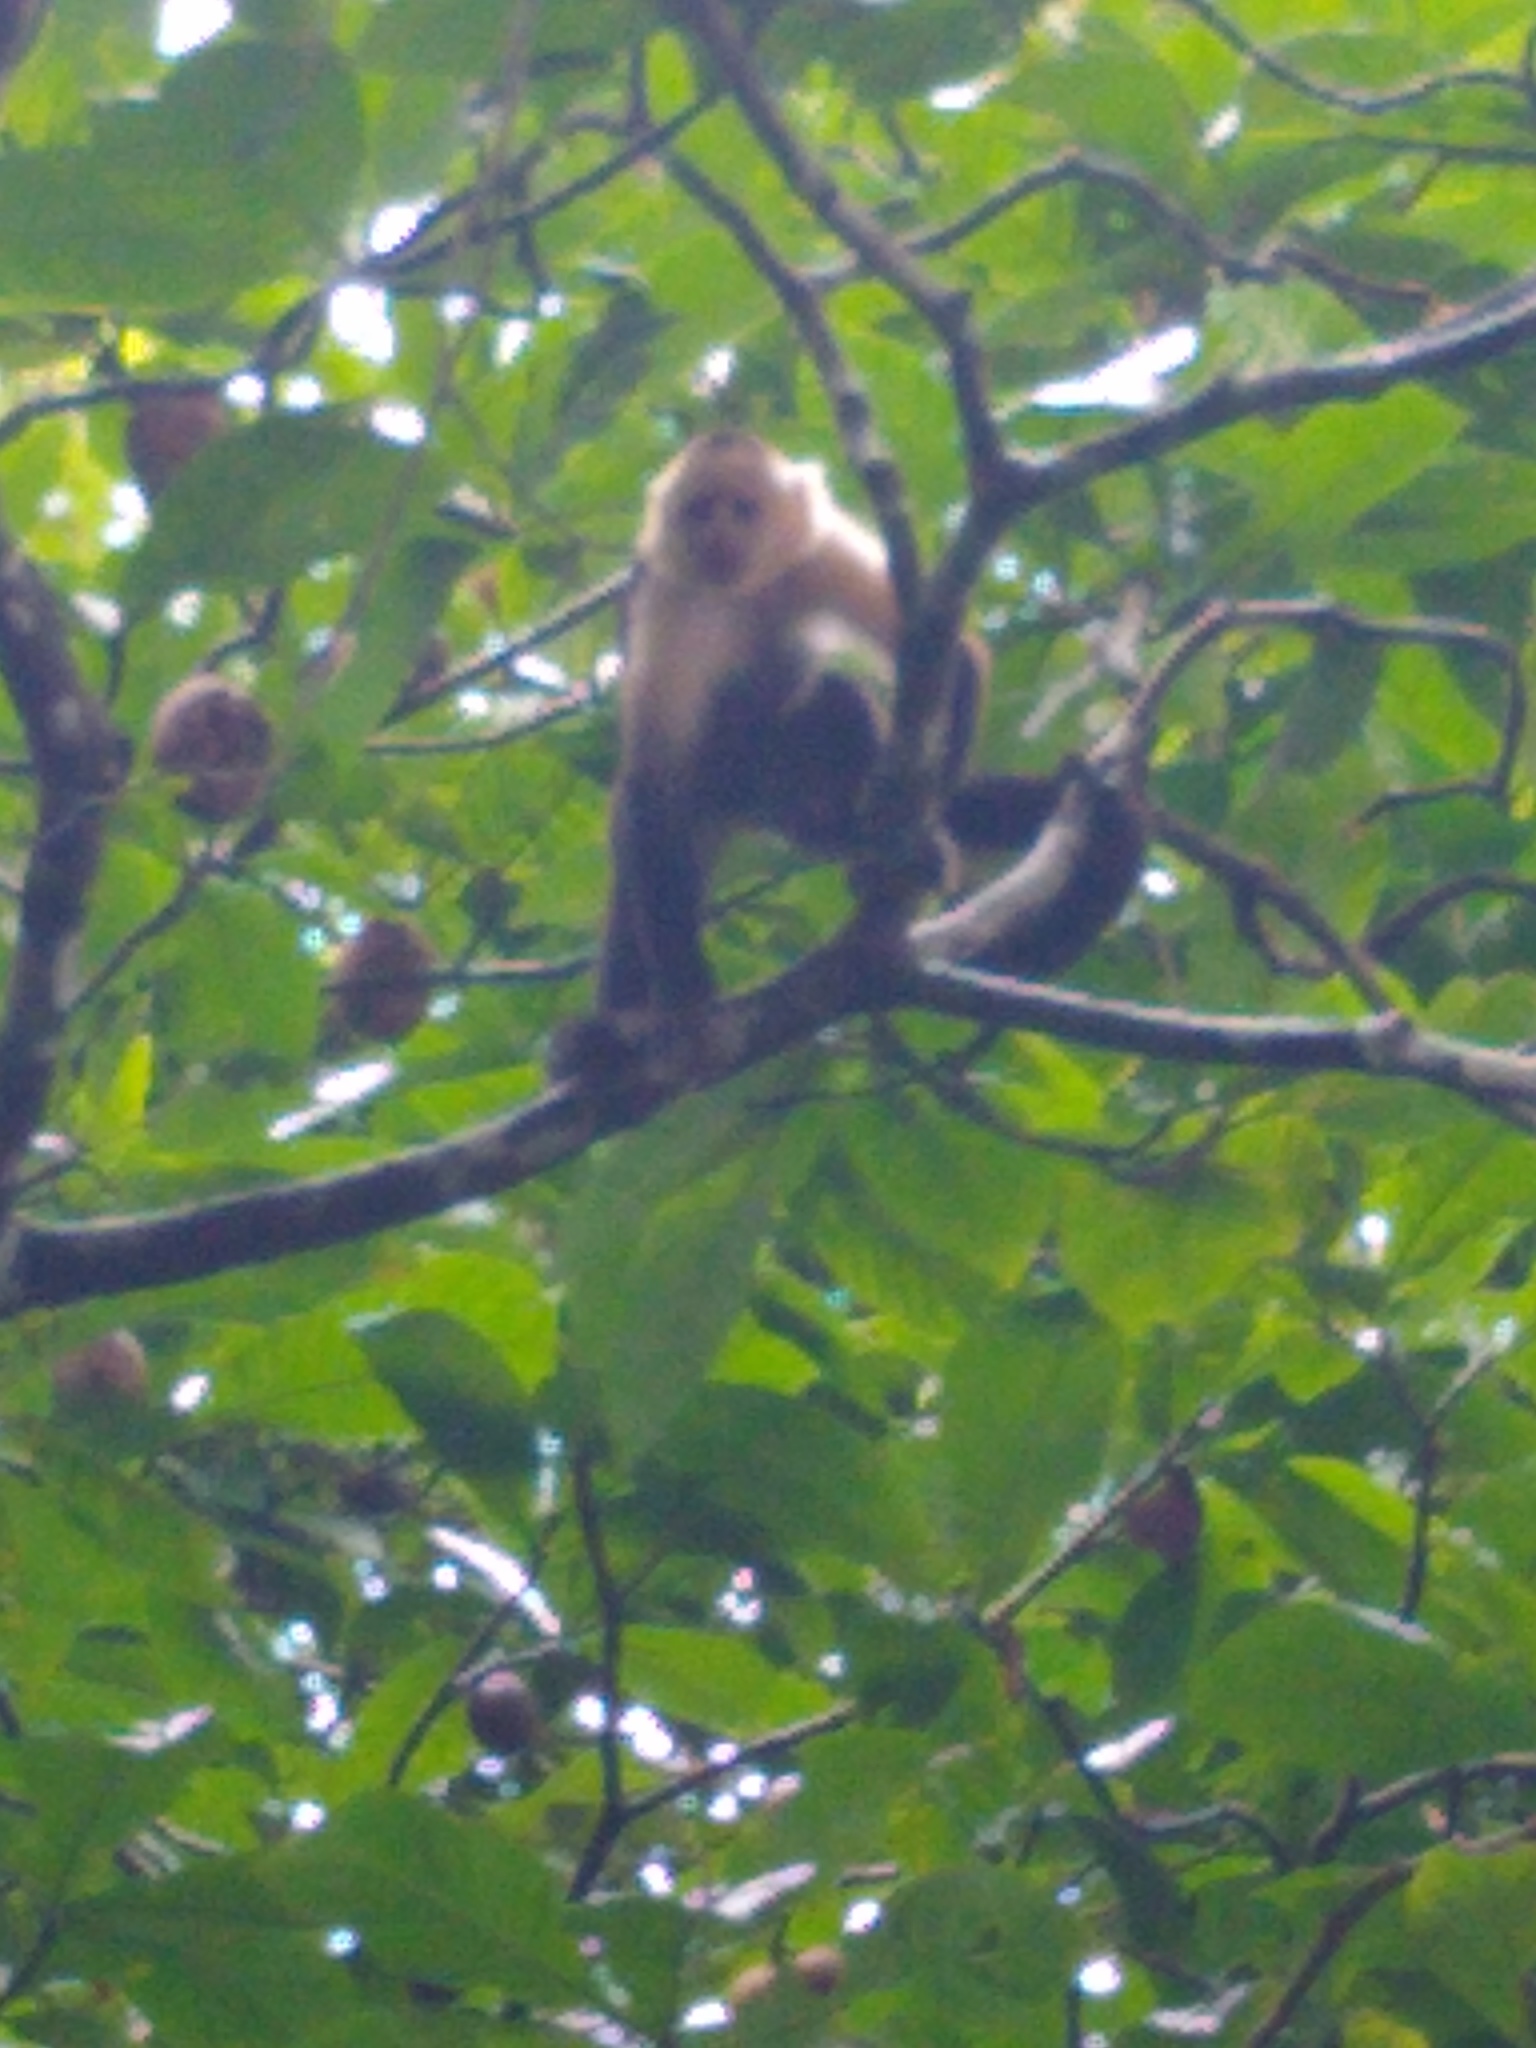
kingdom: Animalia
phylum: Chordata
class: Mammalia
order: Primates
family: Cebidae
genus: Cebus
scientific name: Cebus imitator
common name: Panamanian white-faced capuchin
